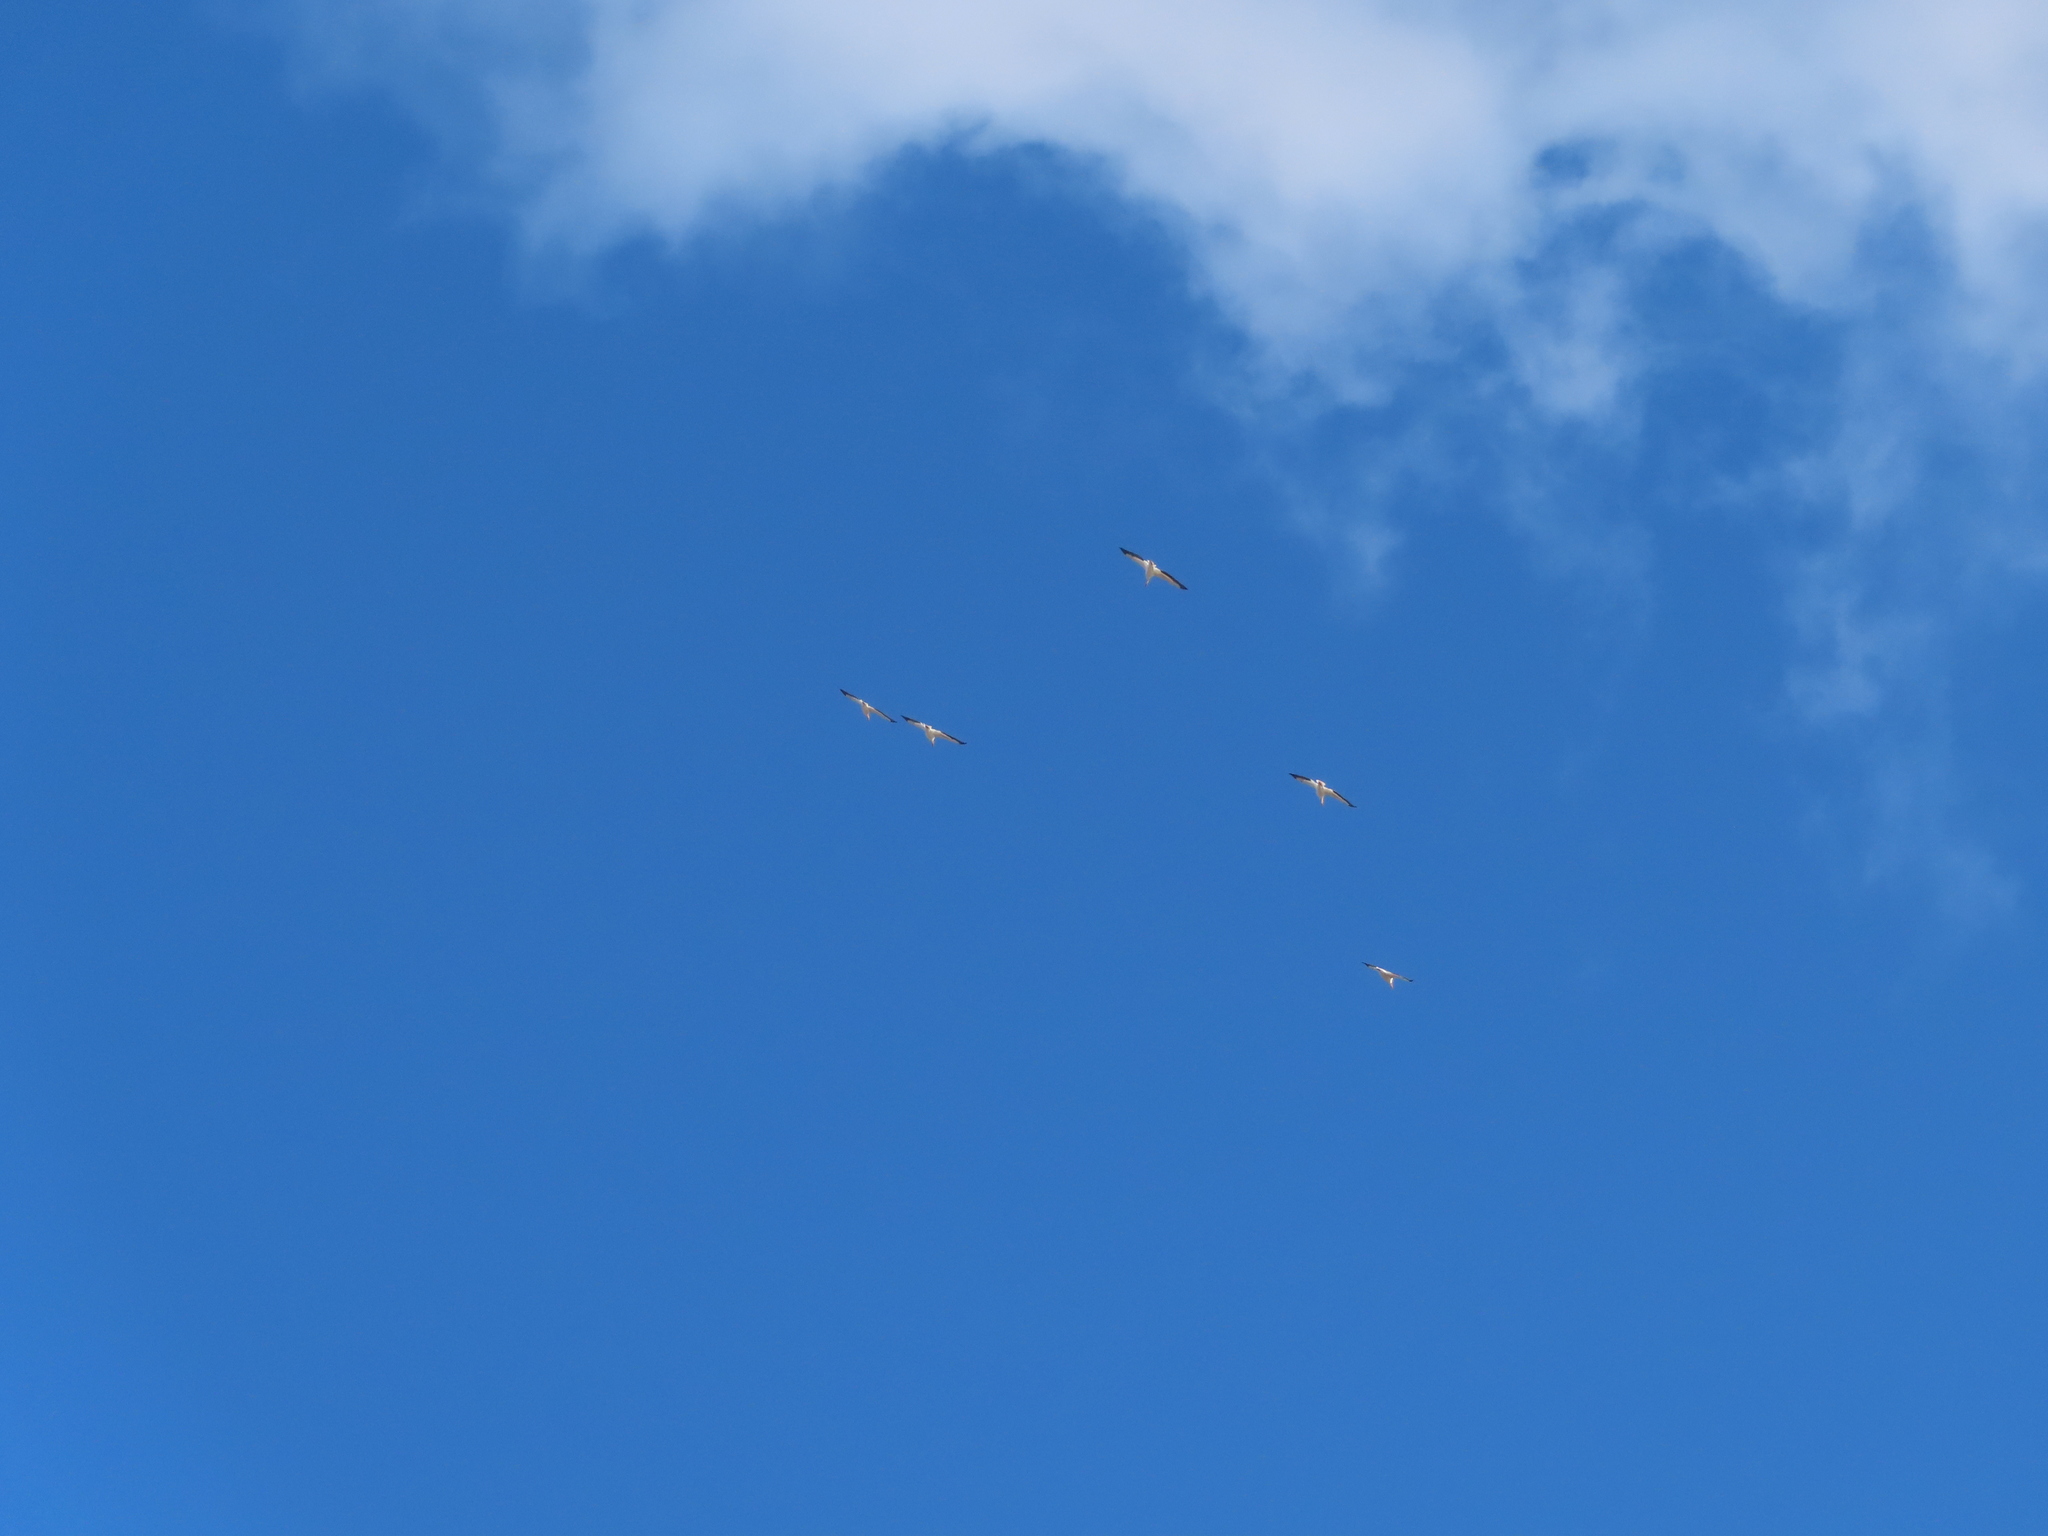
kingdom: Animalia
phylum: Chordata
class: Aves
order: Pelecaniformes
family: Pelecanidae
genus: Pelecanus
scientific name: Pelecanus erythrorhynchos
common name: American white pelican
